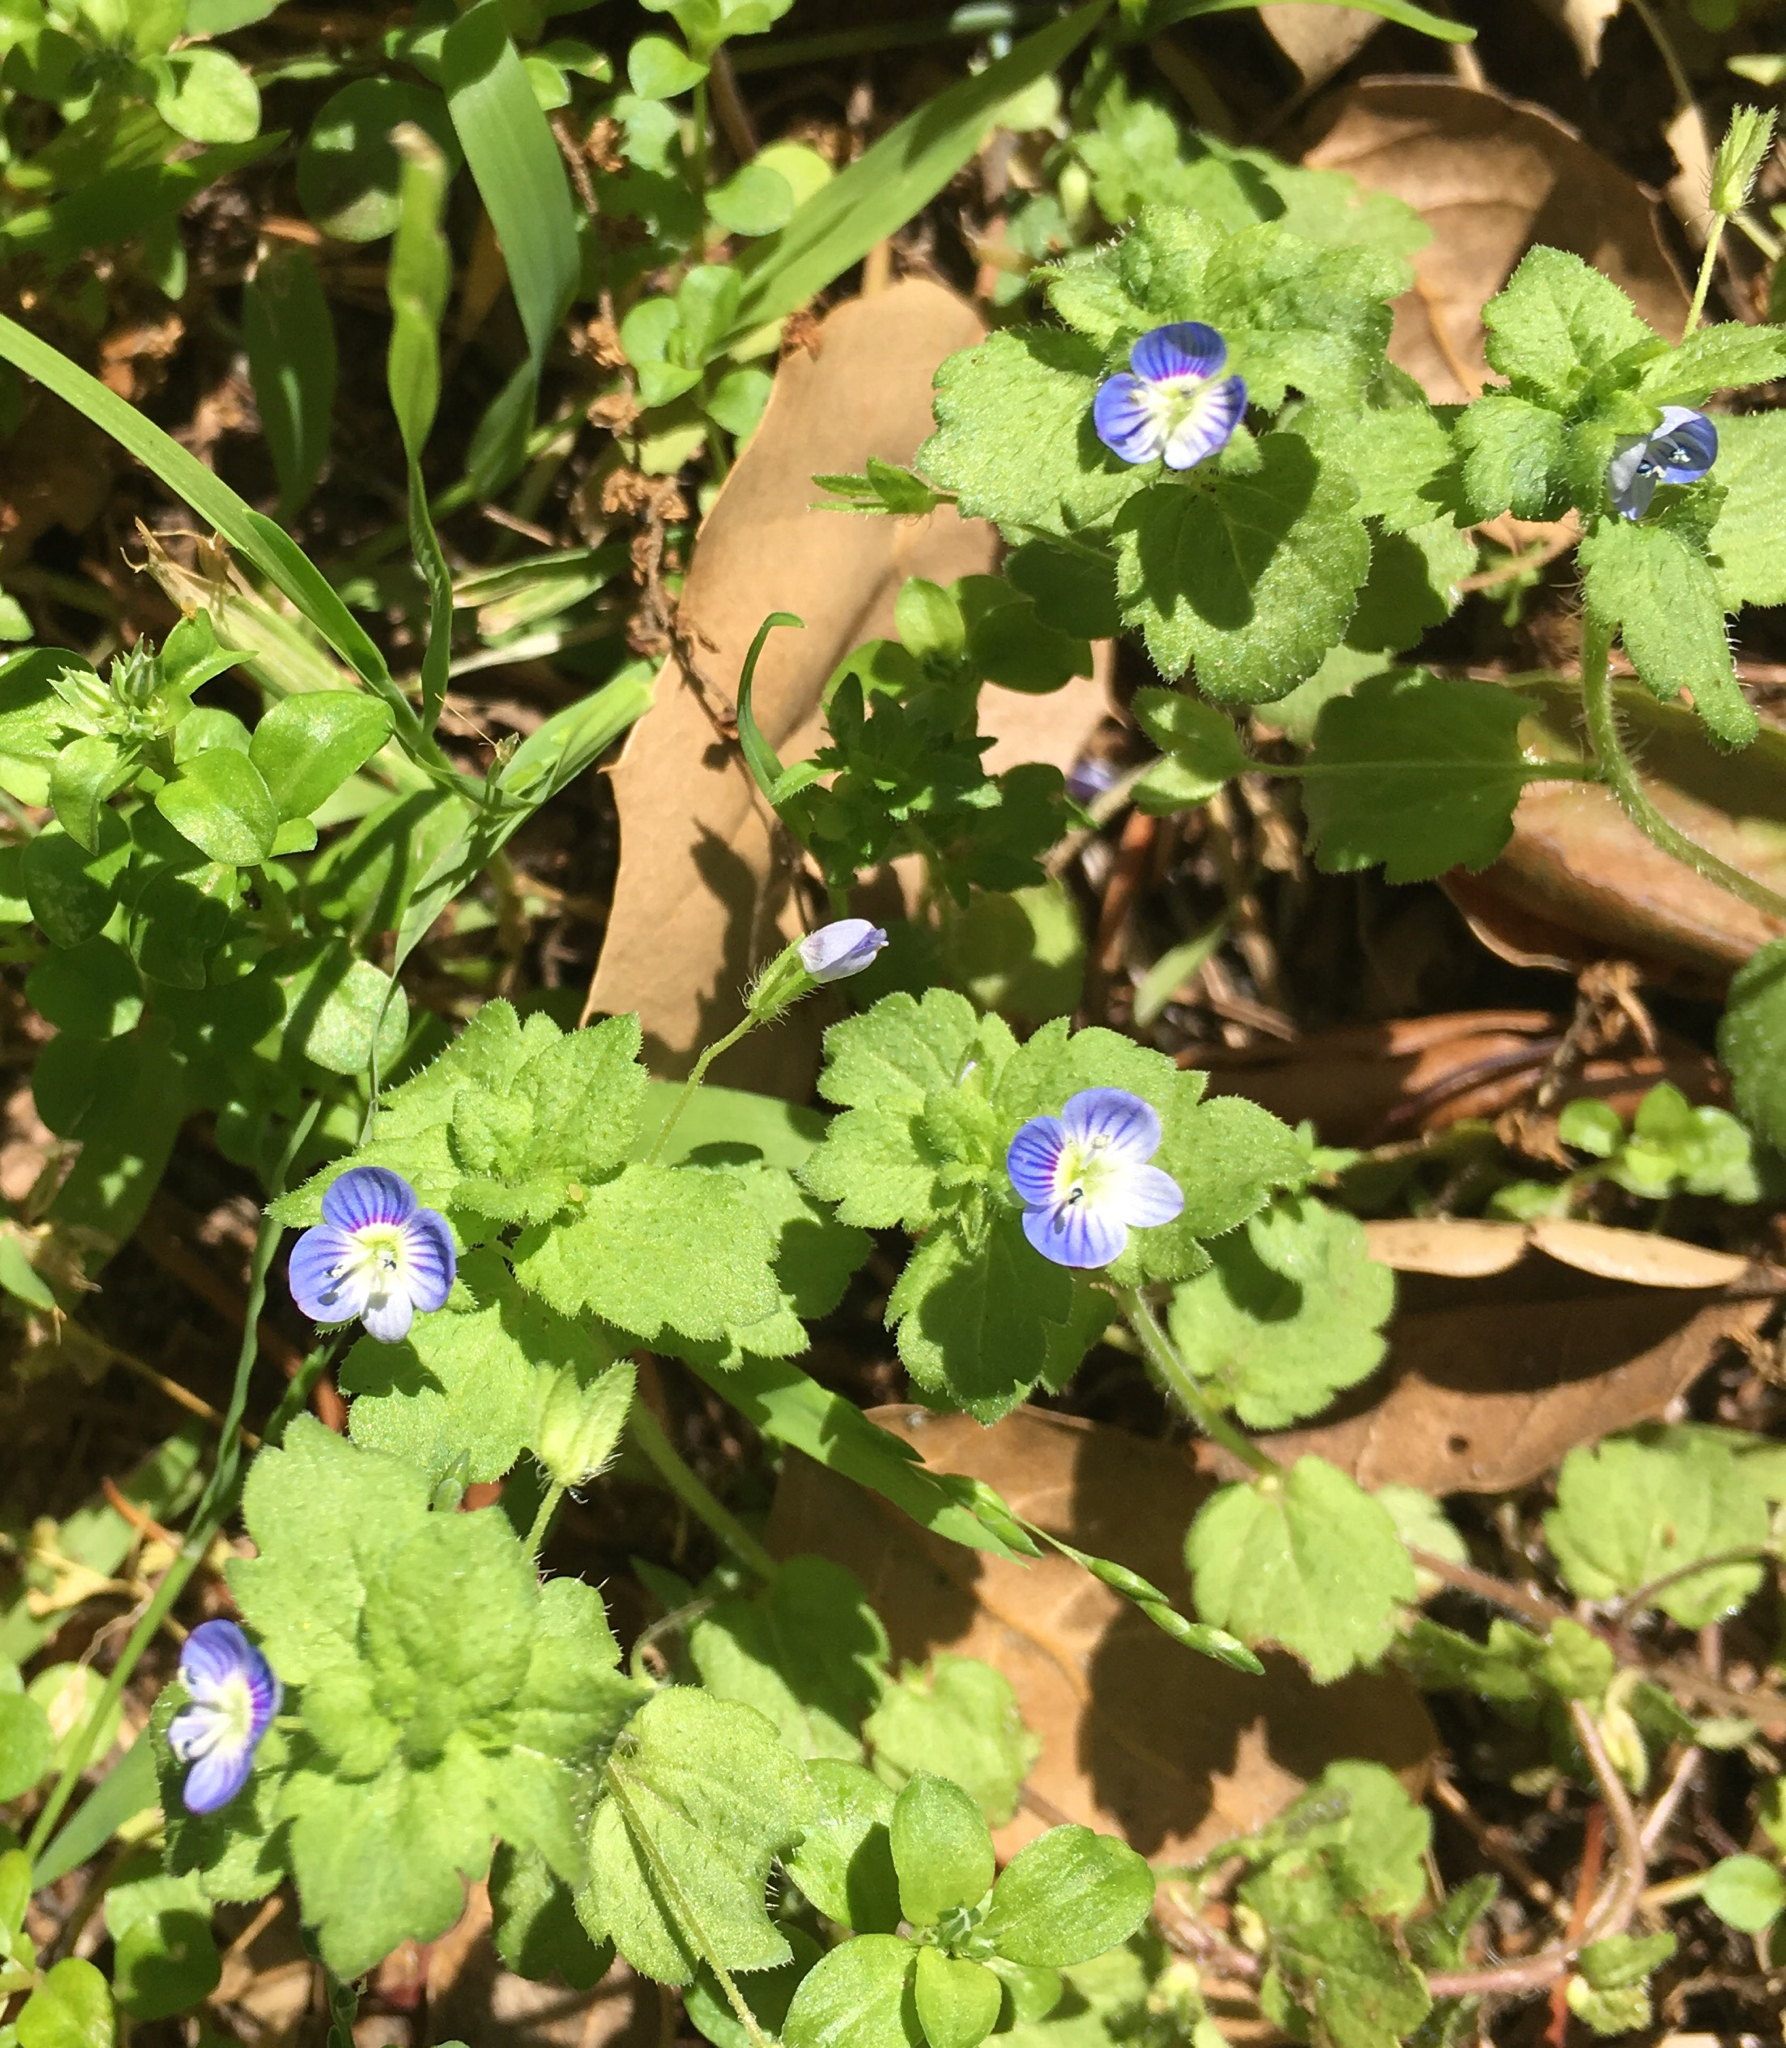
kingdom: Plantae
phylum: Tracheophyta
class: Magnoliopsida
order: Lamiales
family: Plantaginaceae
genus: Veronica
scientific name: Veronica persica
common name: Common field-speedwell
